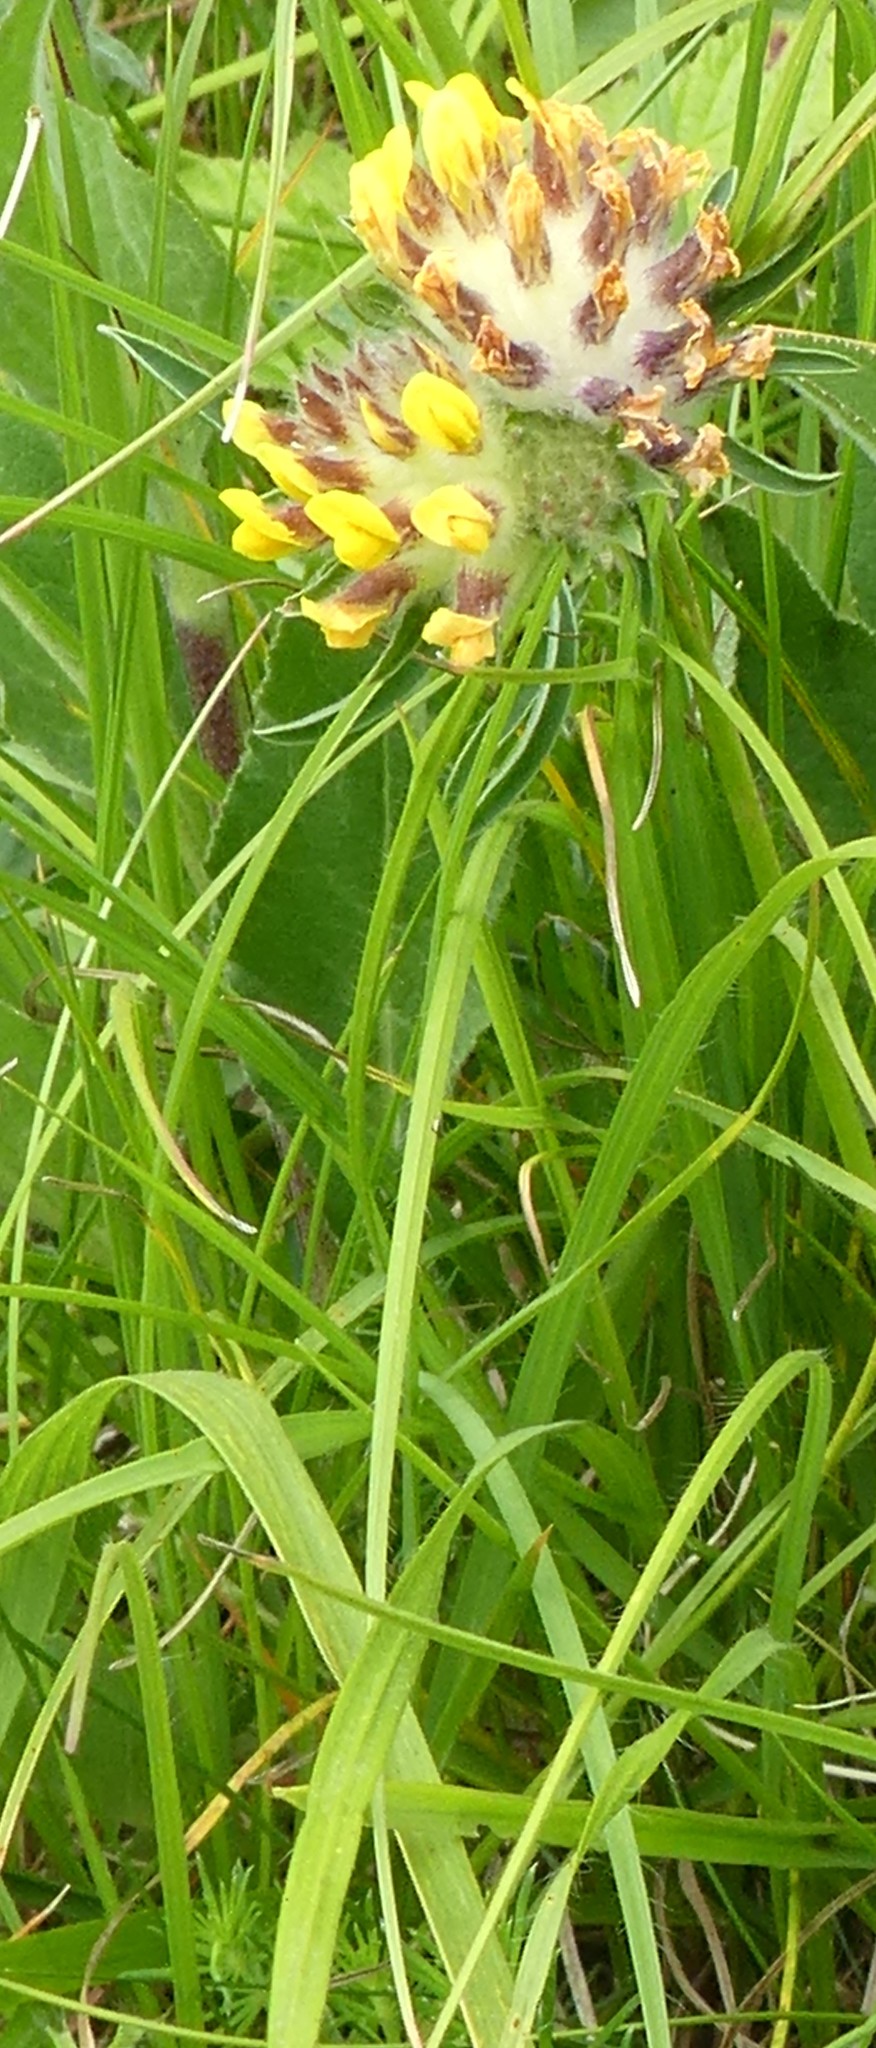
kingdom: Plantae
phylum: Tracheophyta
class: Magnoliopsida
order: Fabales
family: Fabaceae
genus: Anthyllis
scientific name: Anthyllis vulneraria
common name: Kidney vetch
